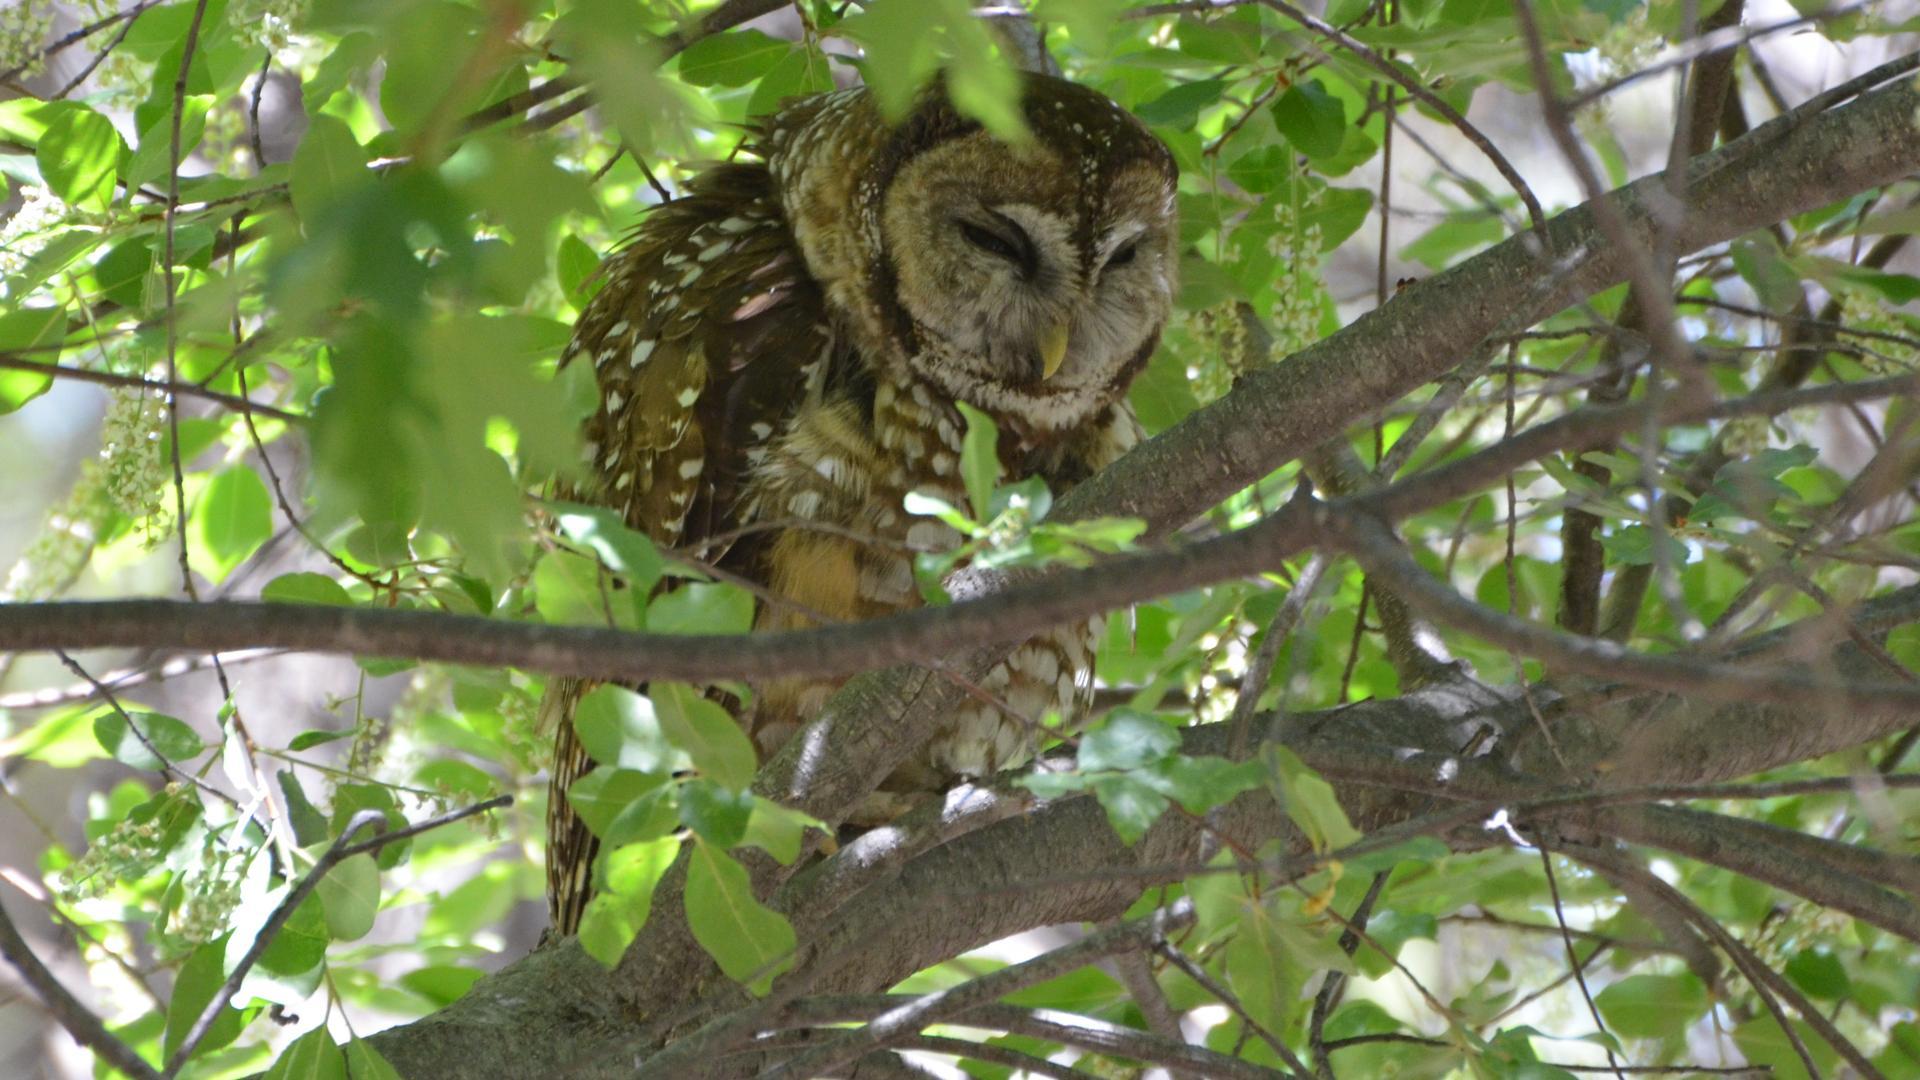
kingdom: Animalia
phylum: Chordata
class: Aves
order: Strigiformes
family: Strigidae
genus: Strix
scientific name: Strix occidentalis
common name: Spotted owl
